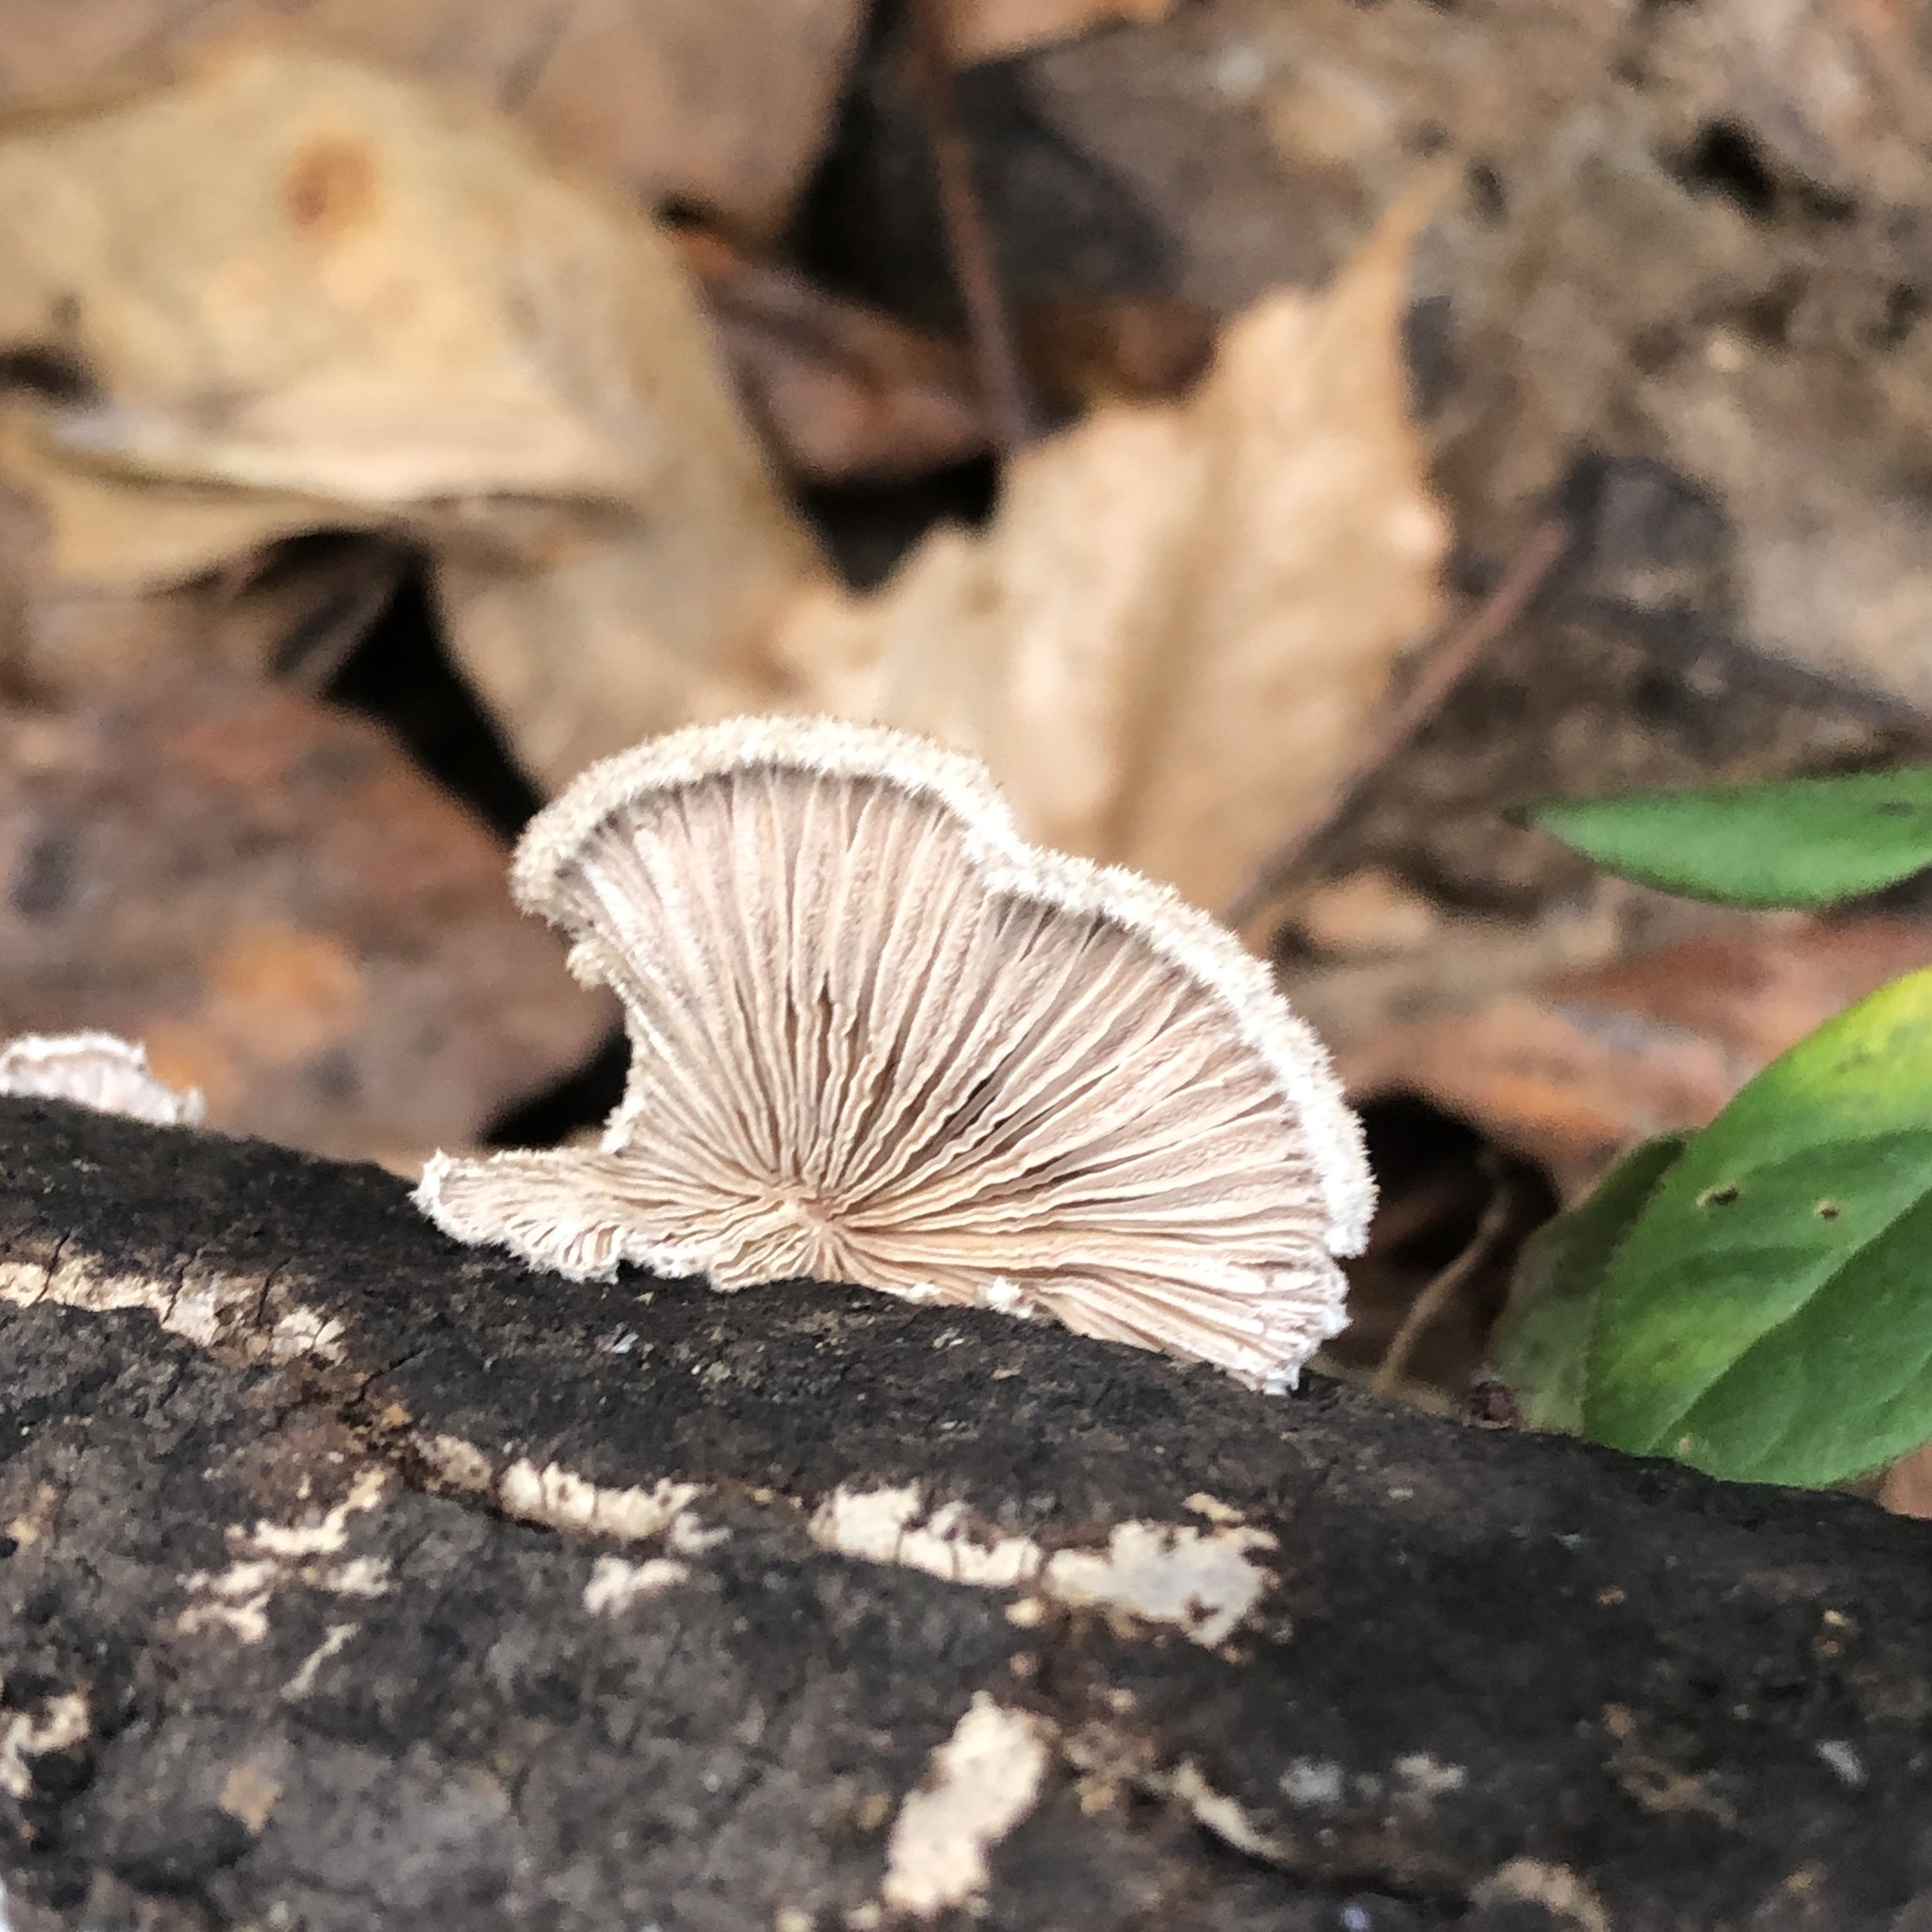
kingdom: Fungi
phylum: Basidiomycota
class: Agaricomycetes
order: Agaricales
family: Schizophyllaceae
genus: Schizophyllum
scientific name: Schizophyllum commune
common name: Common porecrust
